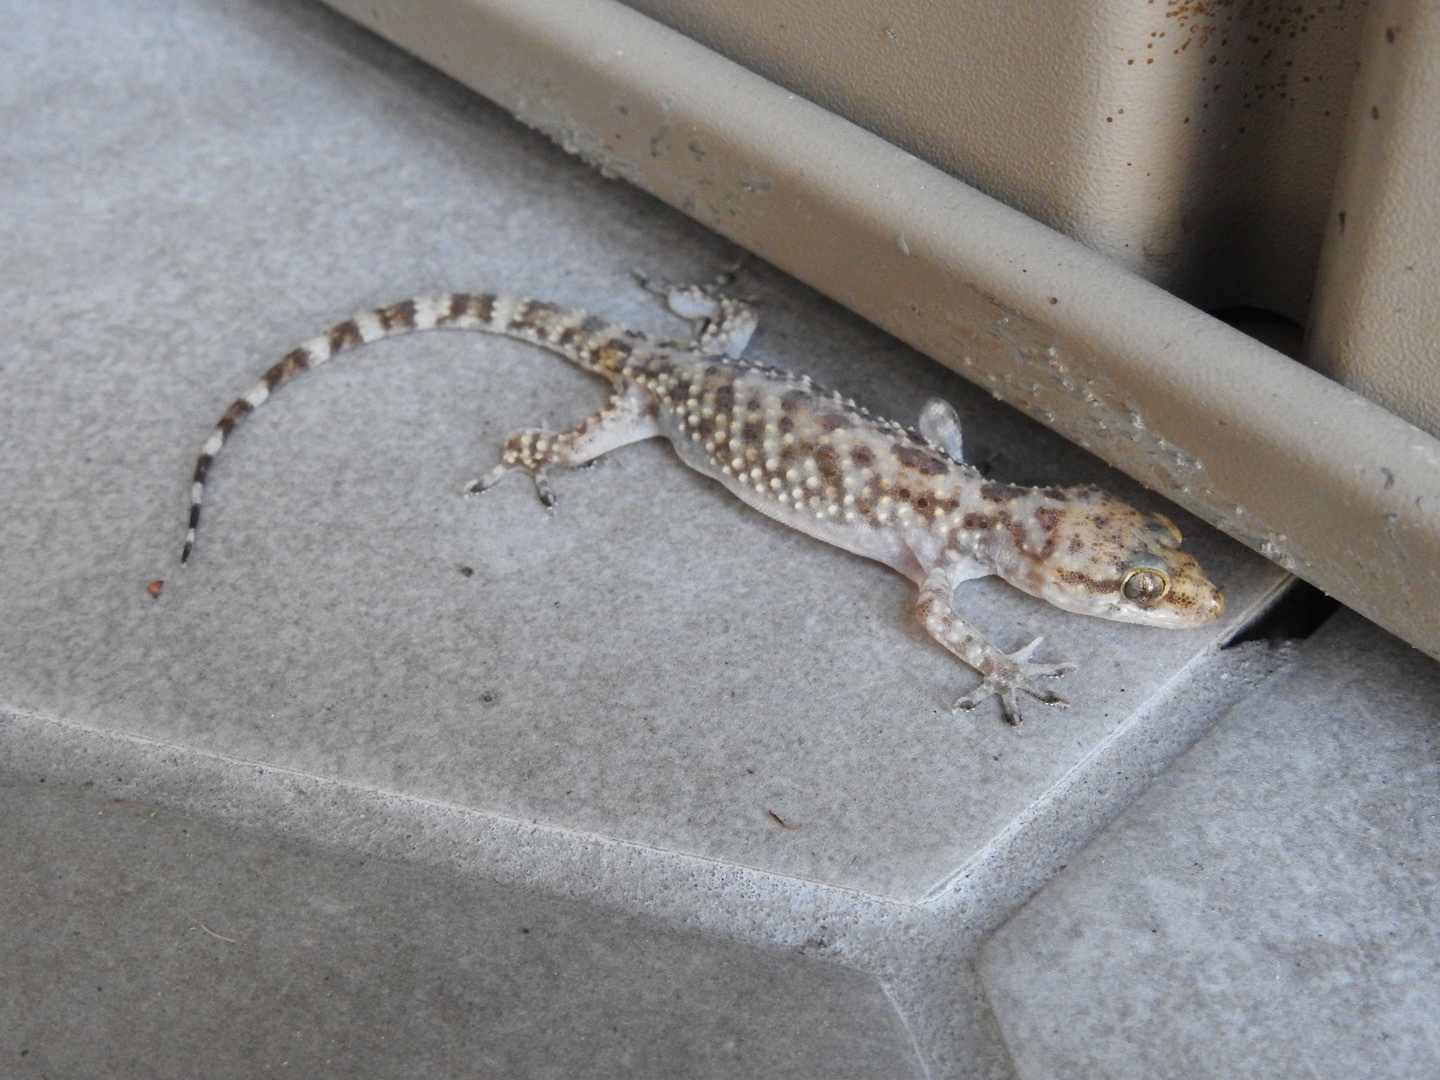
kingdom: Animalia
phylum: Chordata
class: Squamata
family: Gekkonidae
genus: Hemidactylus
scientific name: Hemidactylus turcicus
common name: Turkish gecko
